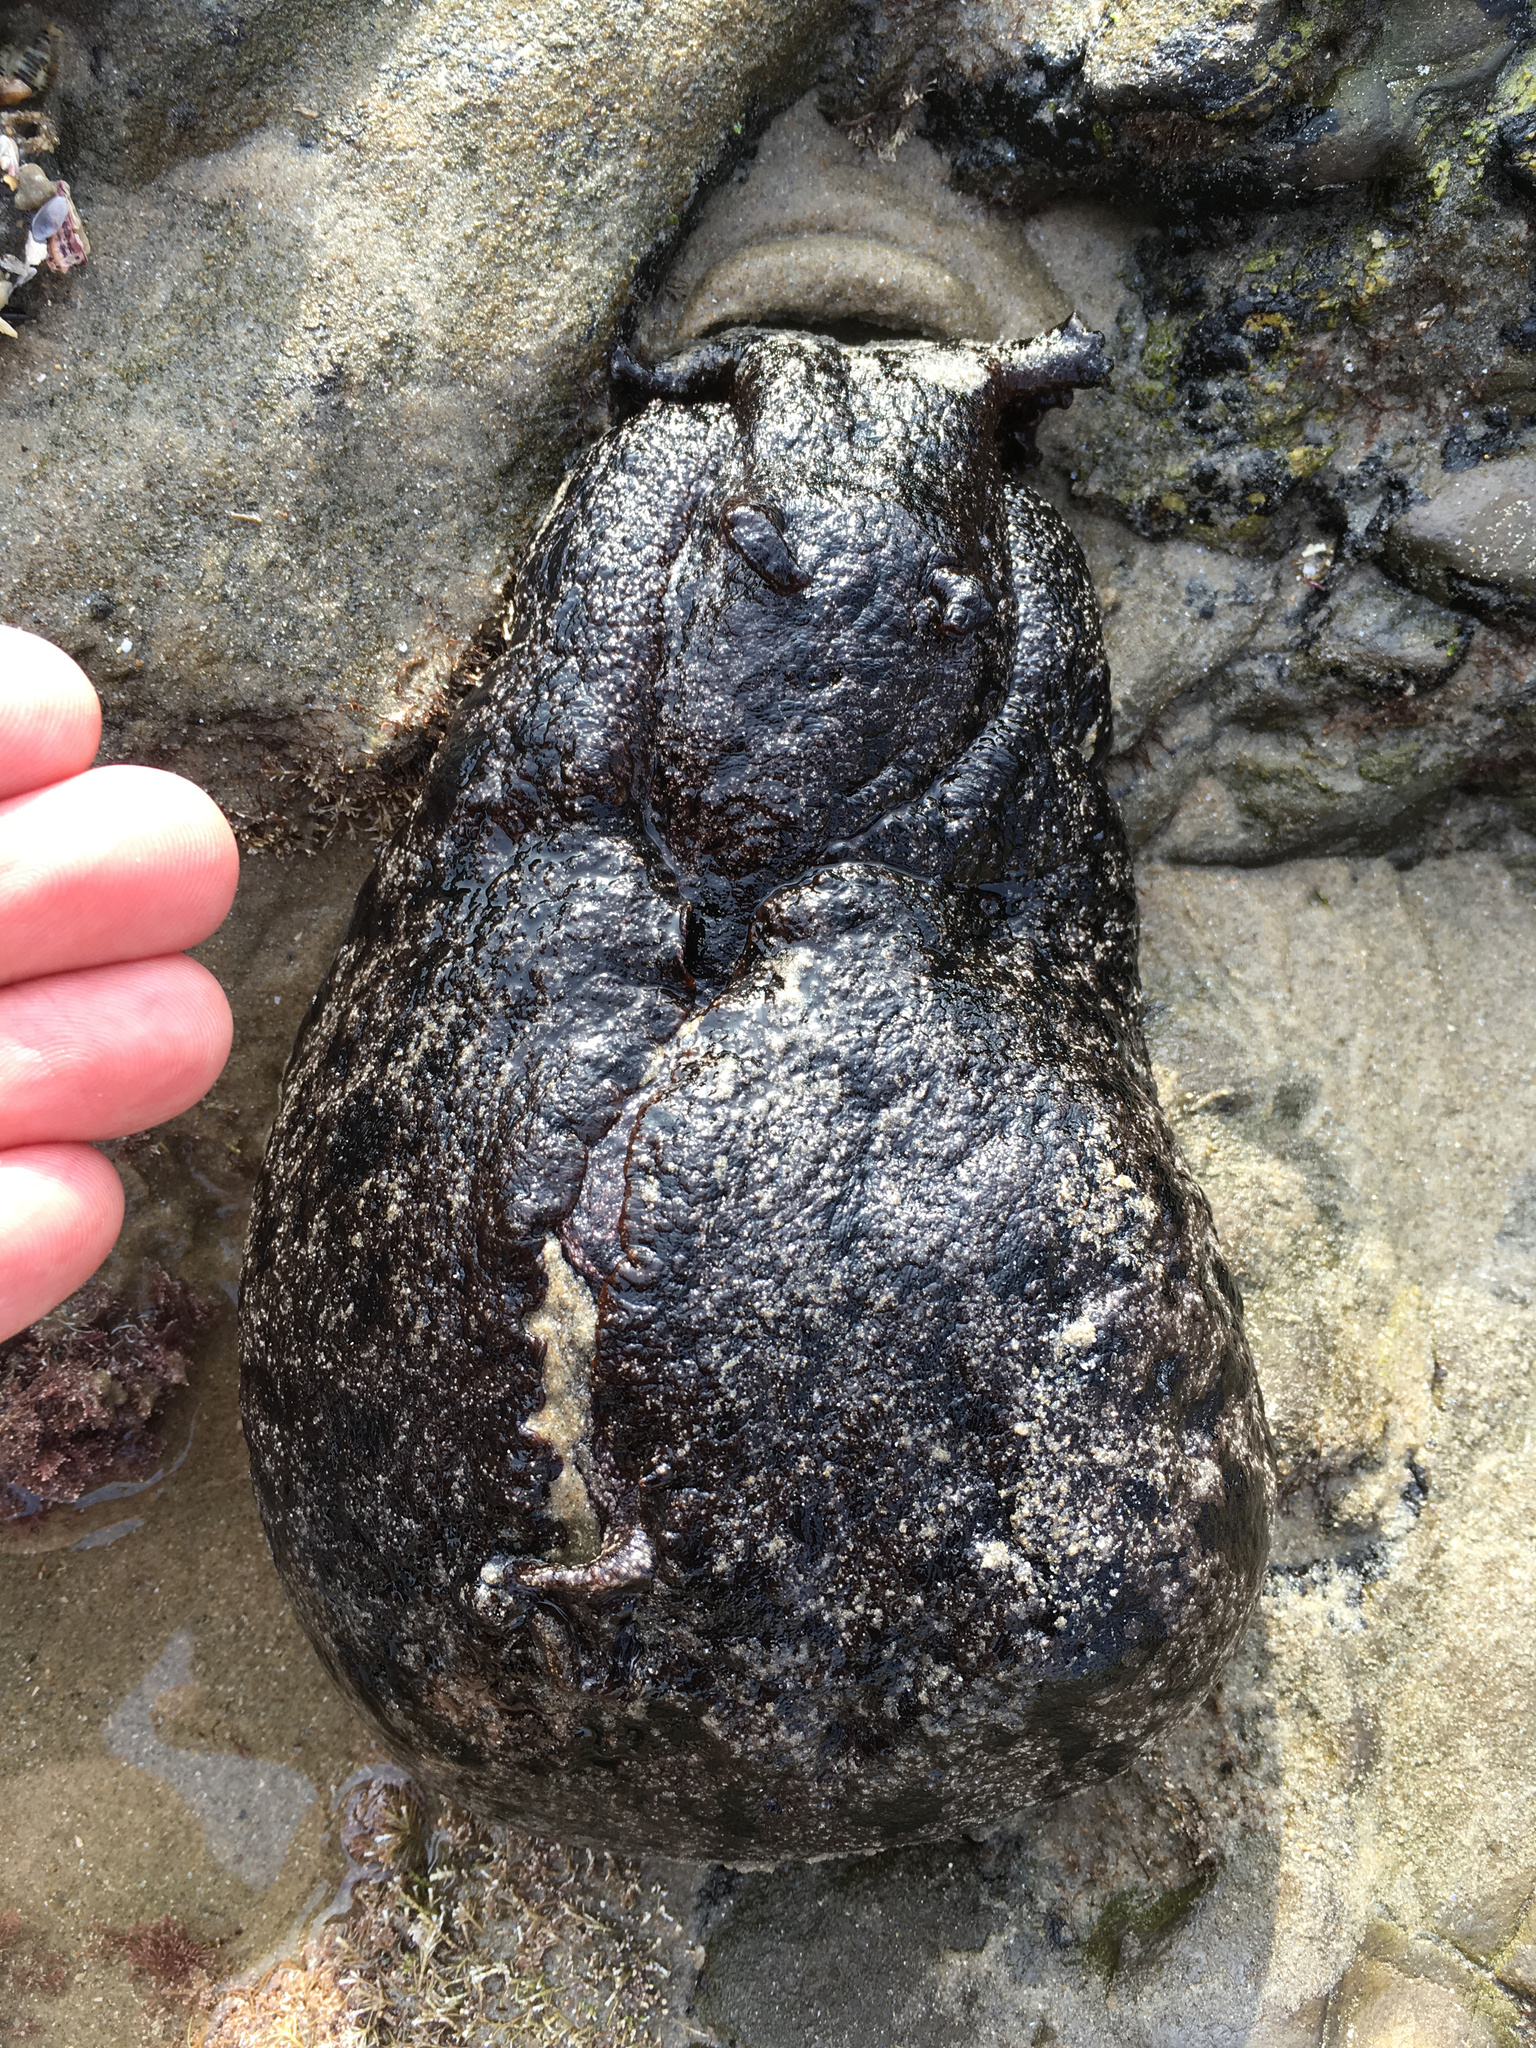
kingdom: Animalia
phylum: Mollusca
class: Gastropoda
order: Aplysiida
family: Aplysiidae
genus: Aplysia
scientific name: Aplysia vaccaria
